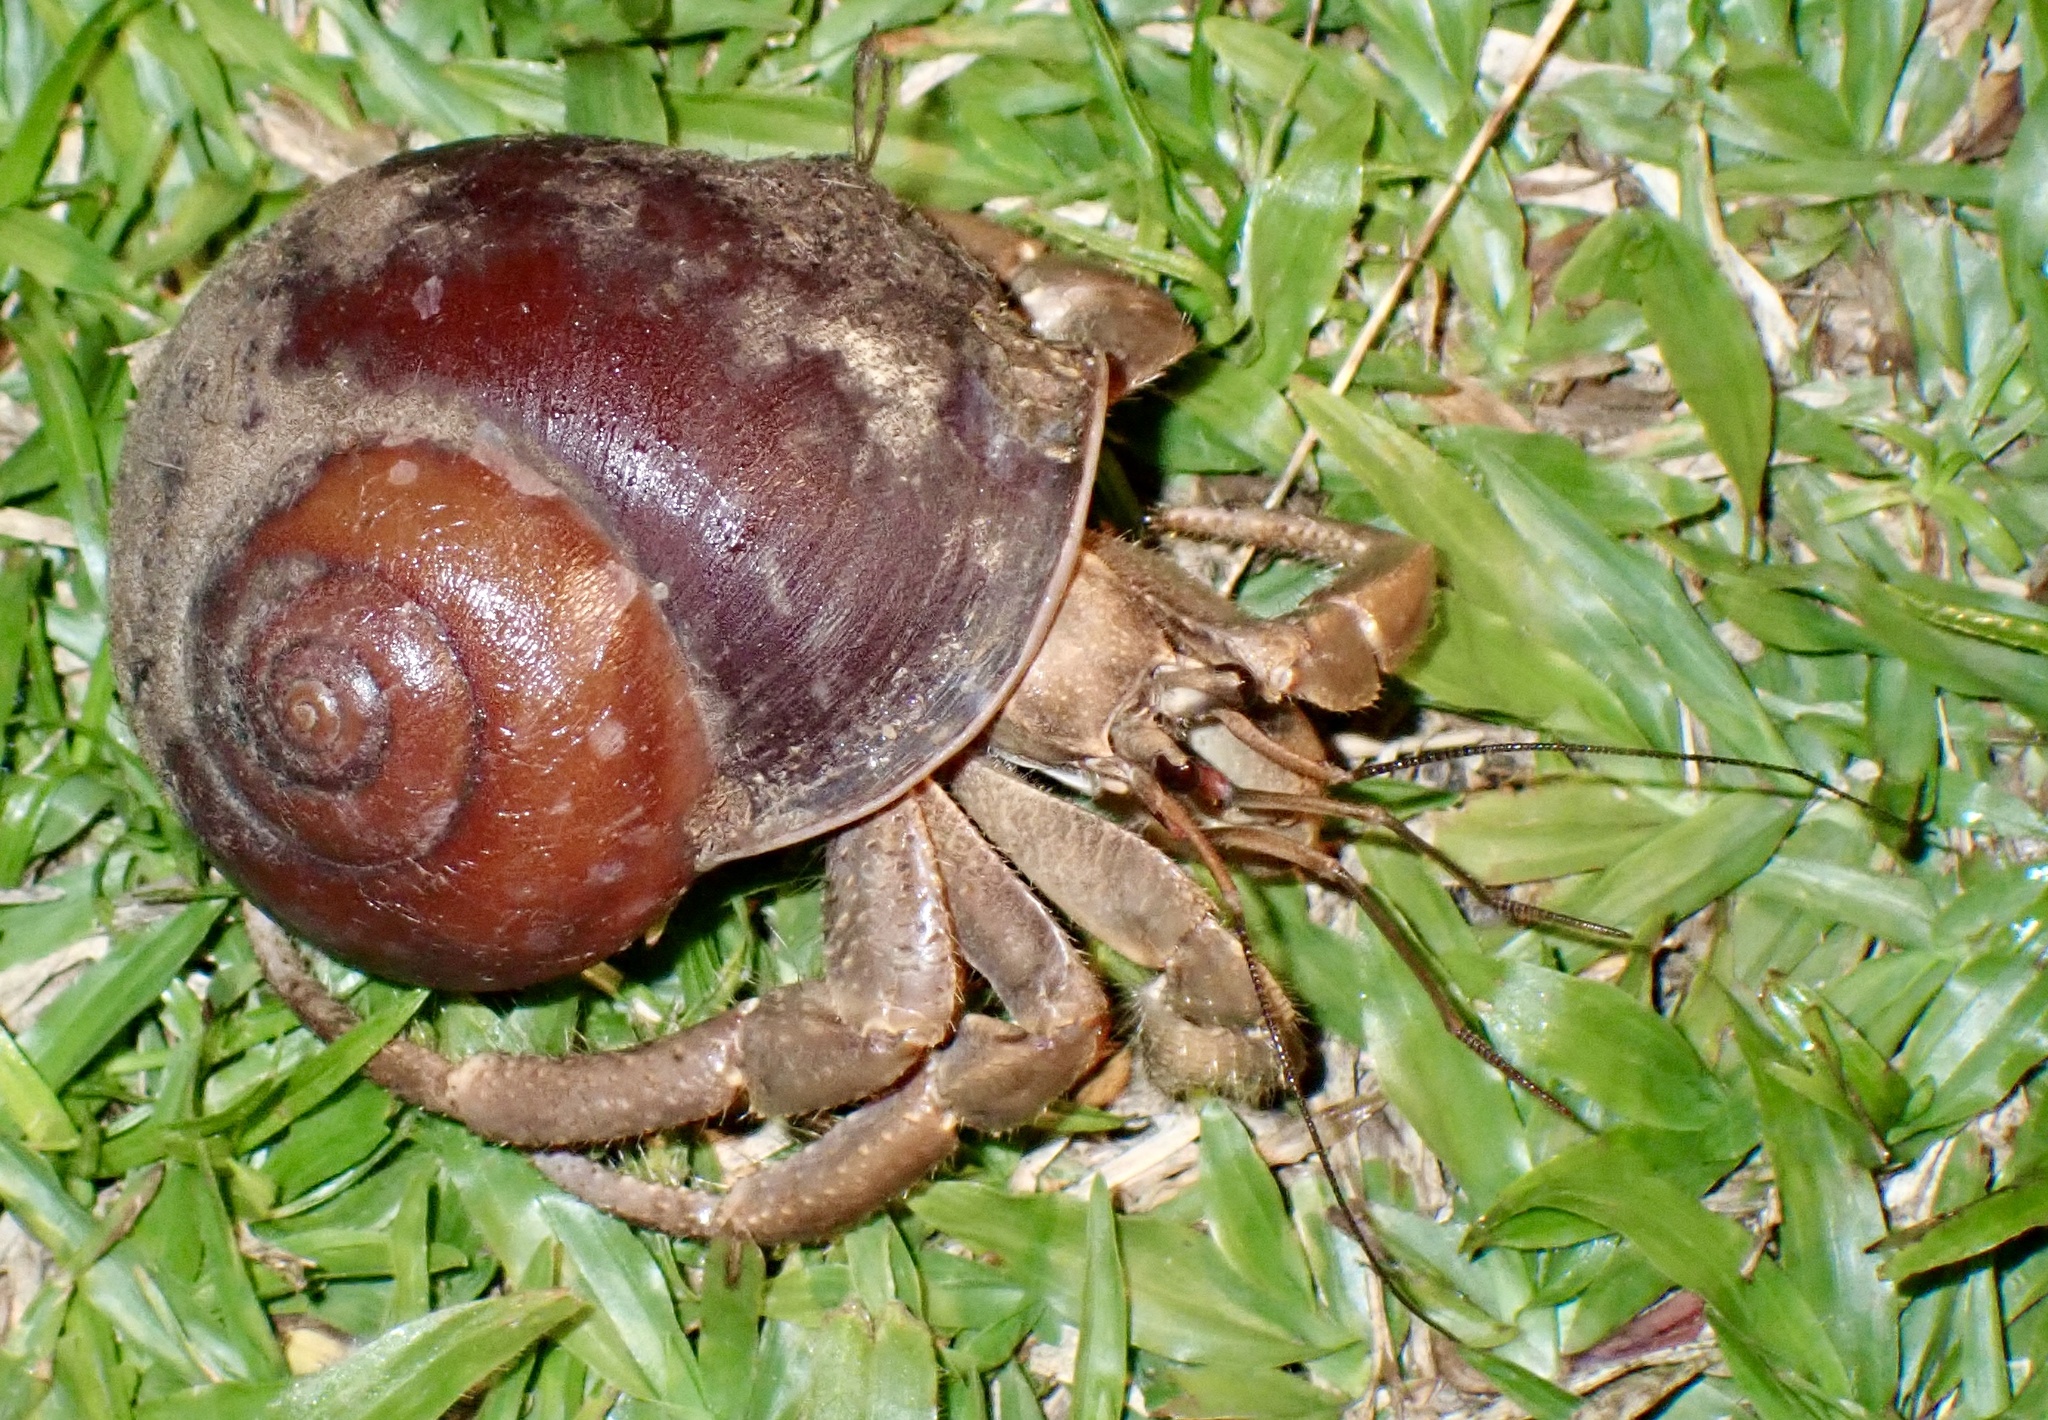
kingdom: Animalia
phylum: Arthropoda
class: Malacostraca
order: Decapoda
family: Coenobitidae
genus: Coenobita
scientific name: Coenobita longitarsis
